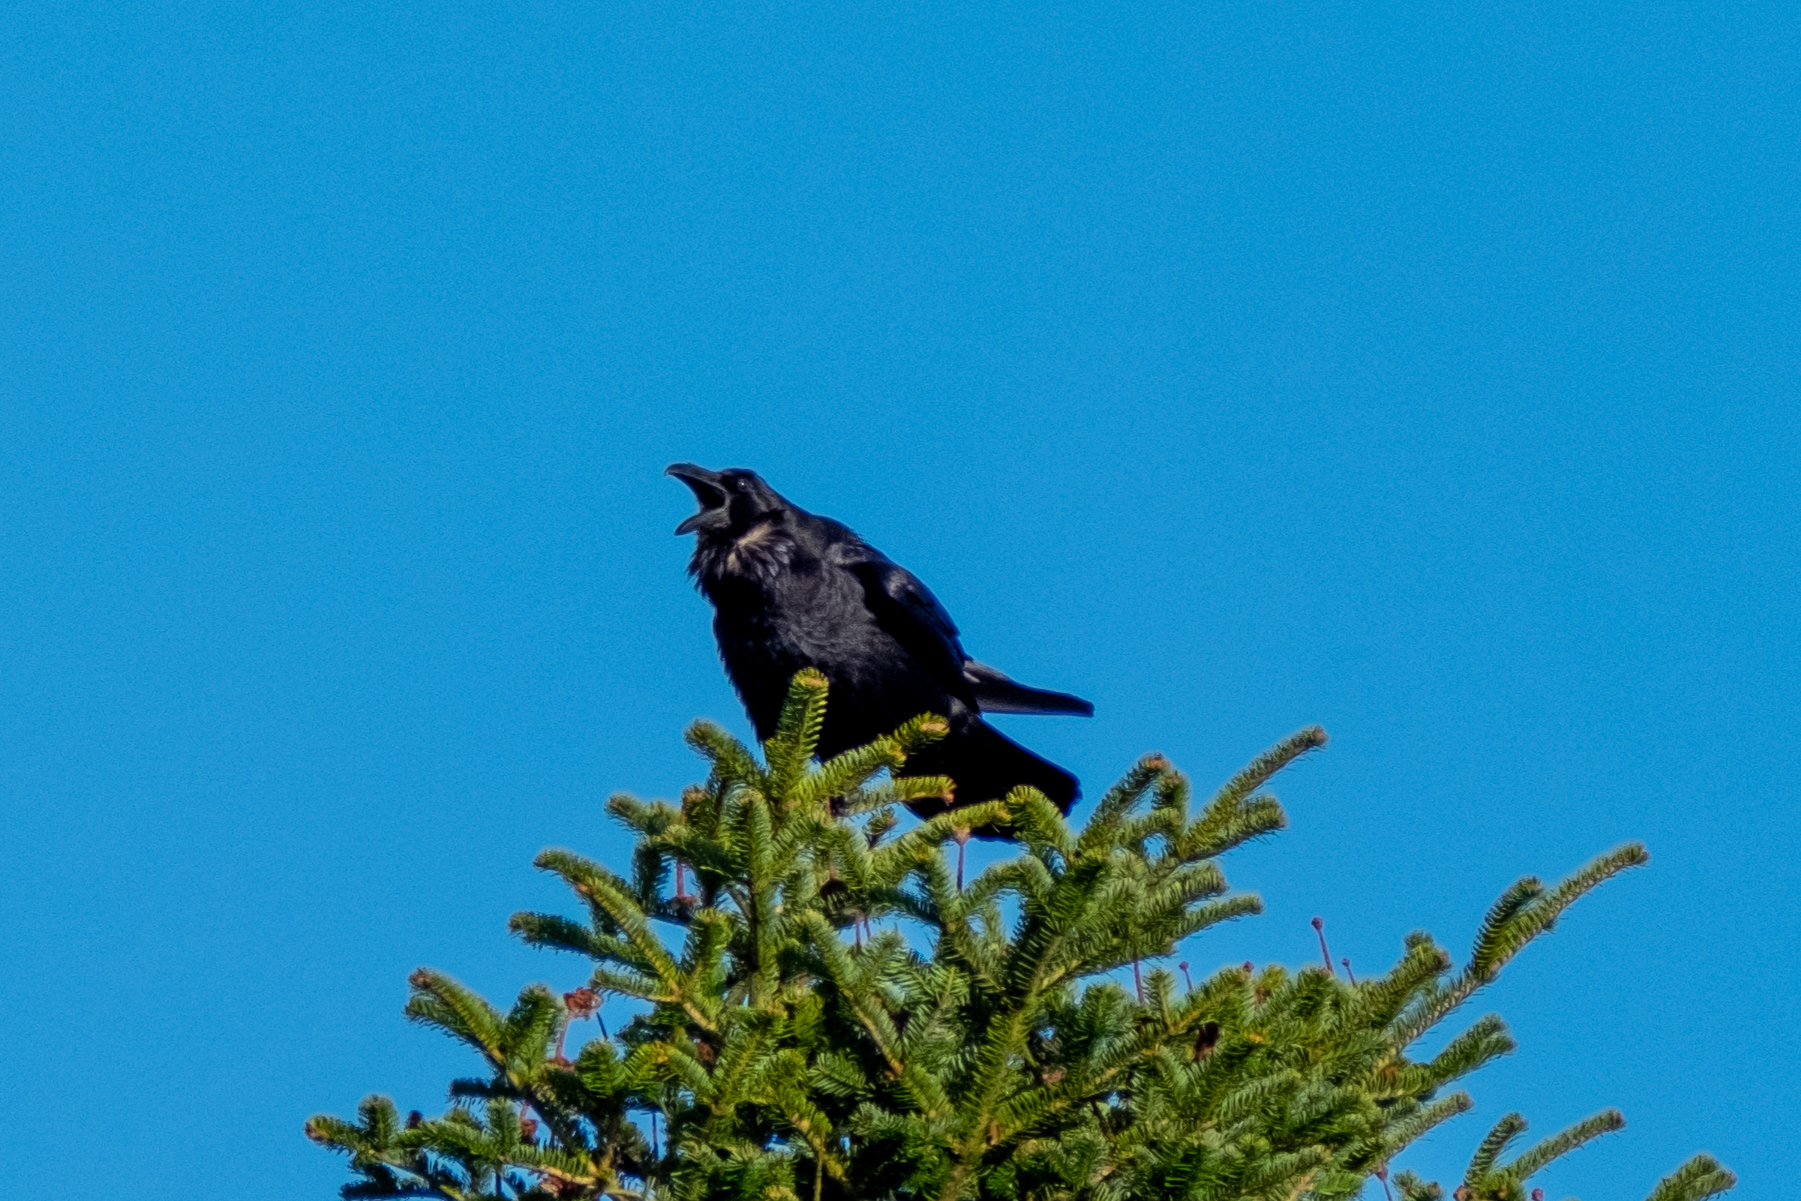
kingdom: Animalia
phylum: Chordata
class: Aves
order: Passeriformes
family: Corvidae
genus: Corvus
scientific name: Corvus corax
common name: Common raven
